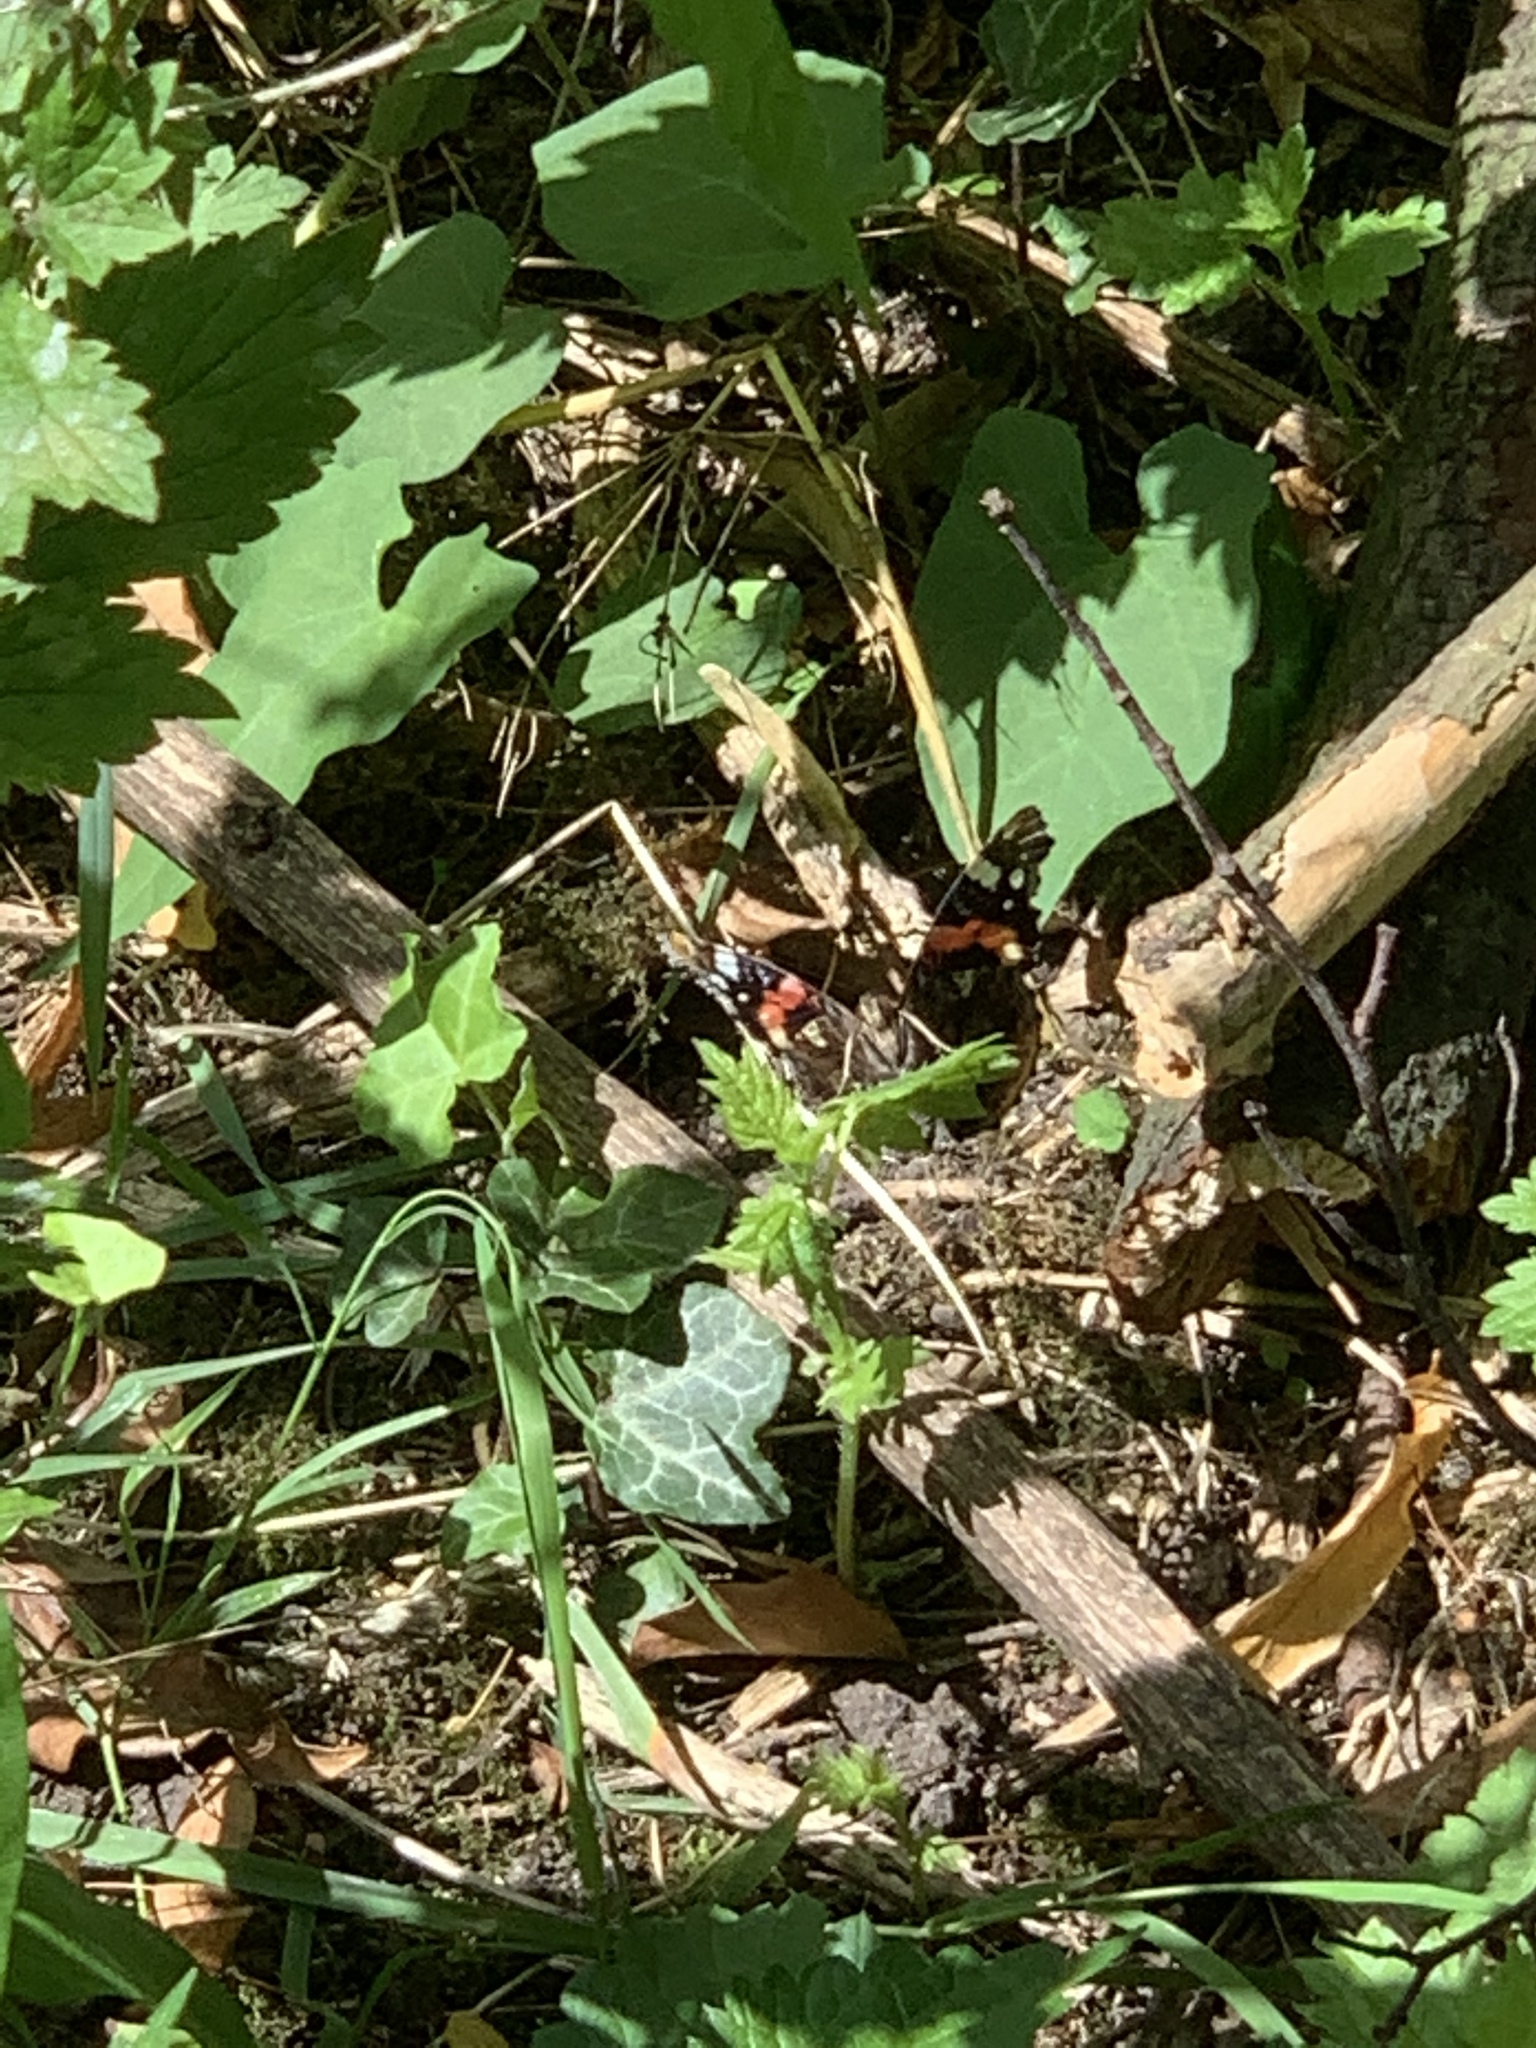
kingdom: Animalia
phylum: Arthropoda
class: Insecta
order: Lepidoptera
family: Nymphalidae
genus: Vanessa
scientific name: Vanessa atalanta
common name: Red admiral
